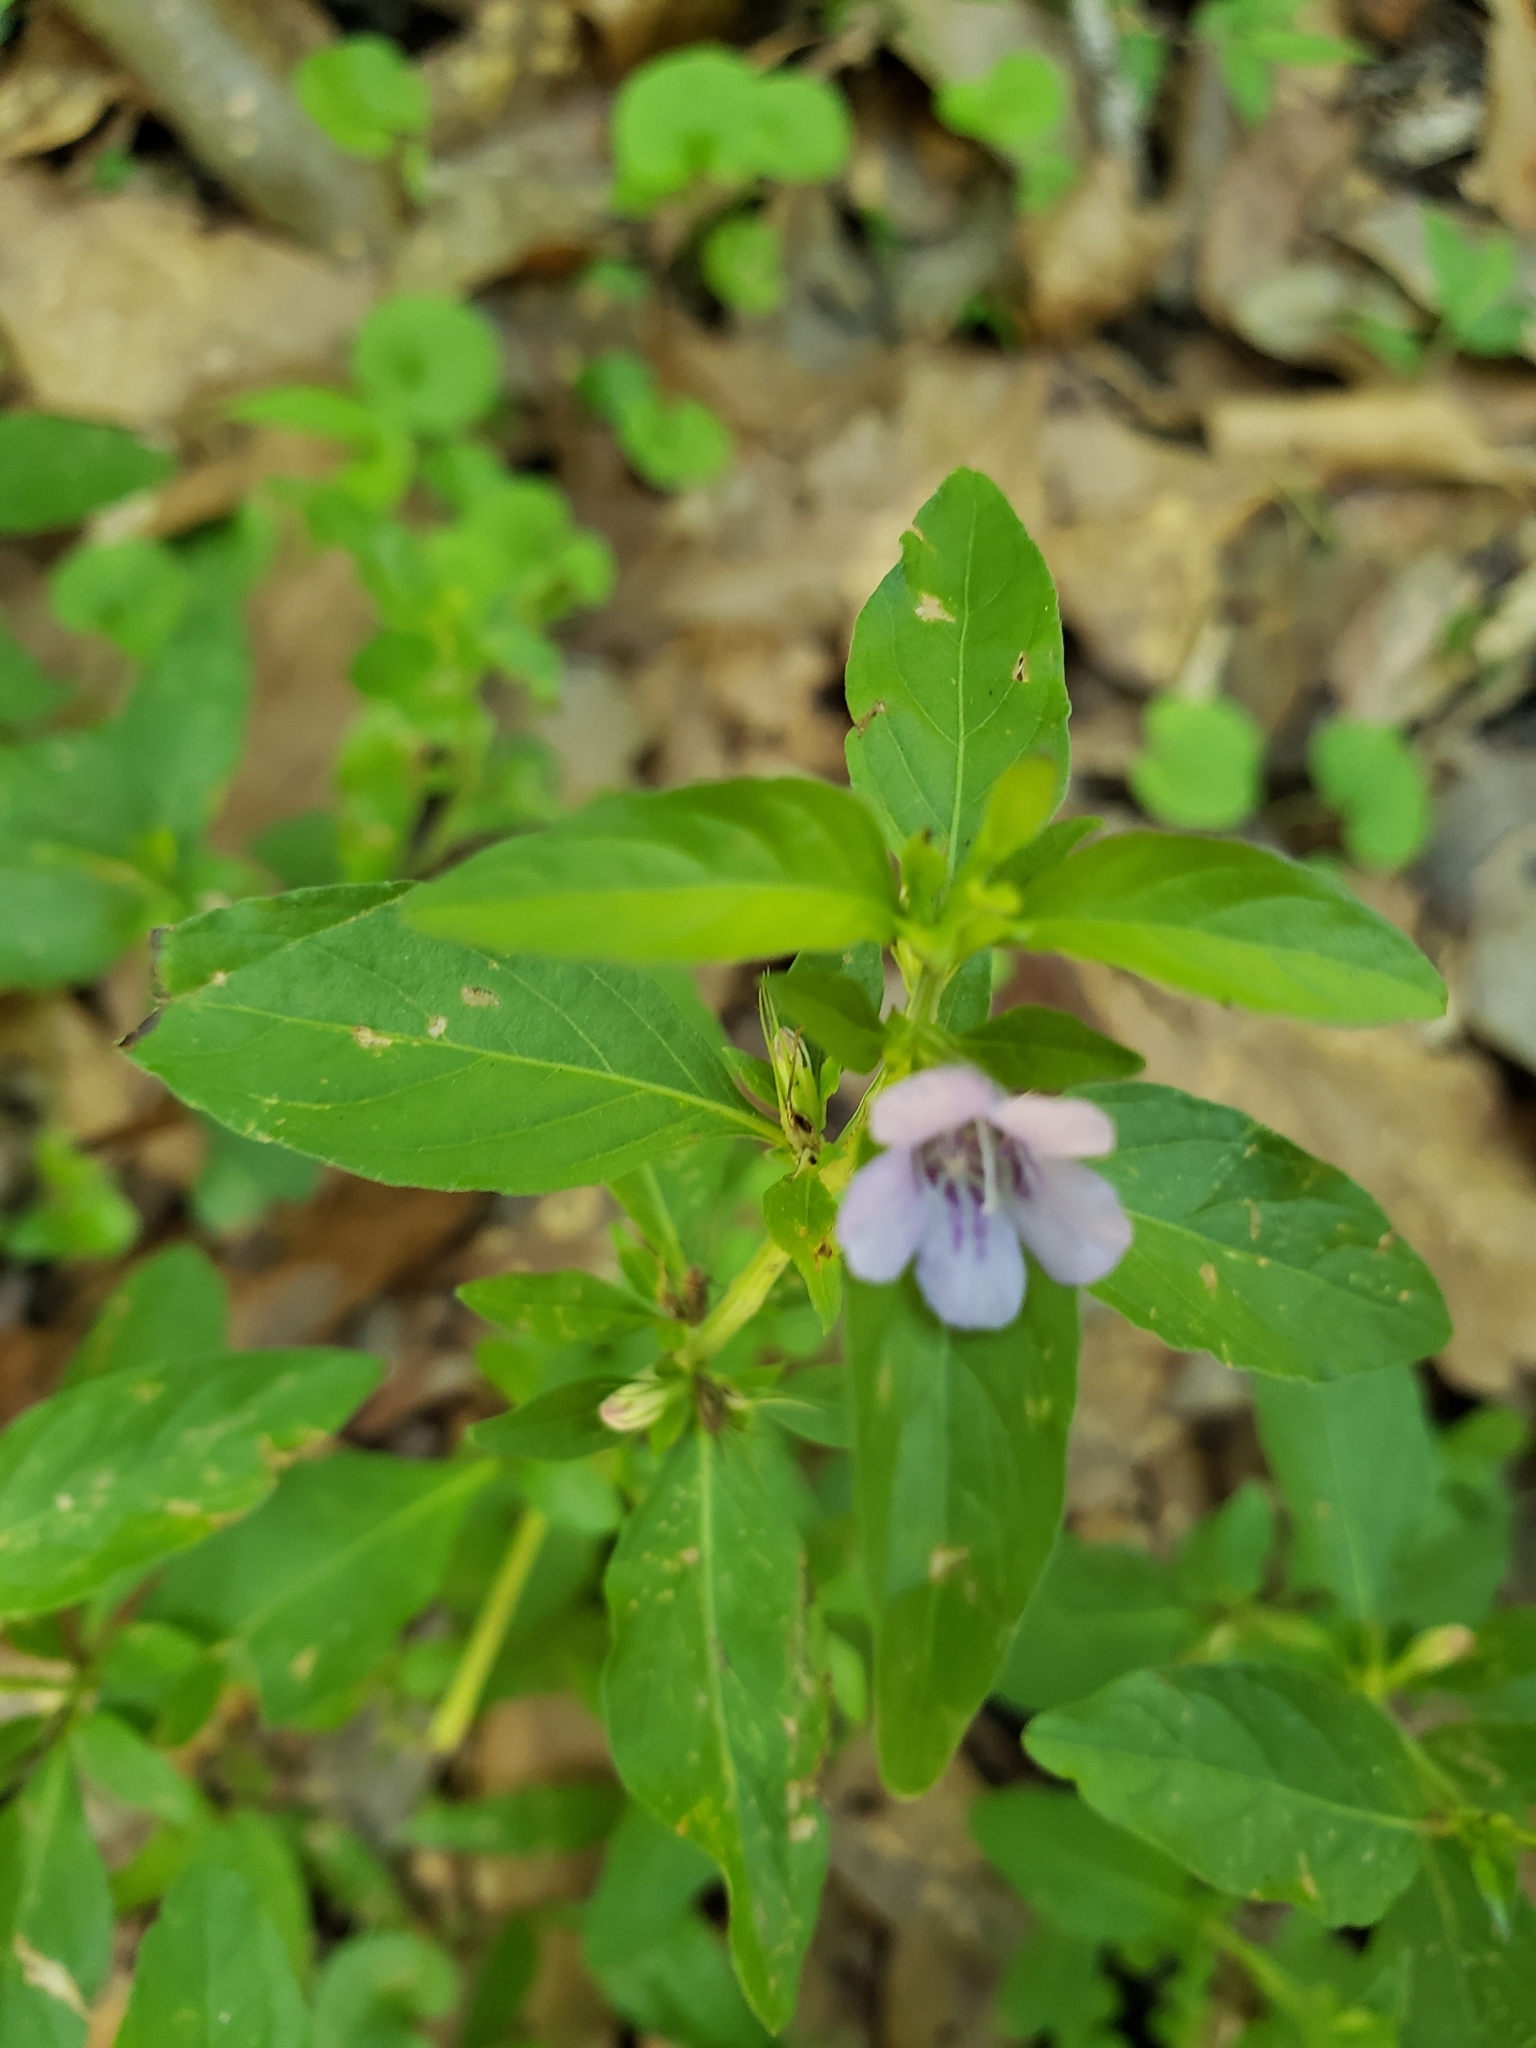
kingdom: Plantae
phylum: Tracheophyta
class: Magnoliopsida
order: Lamiales
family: Acanthaceae
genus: Dyschoriste
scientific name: Dyschoriste humistrata
